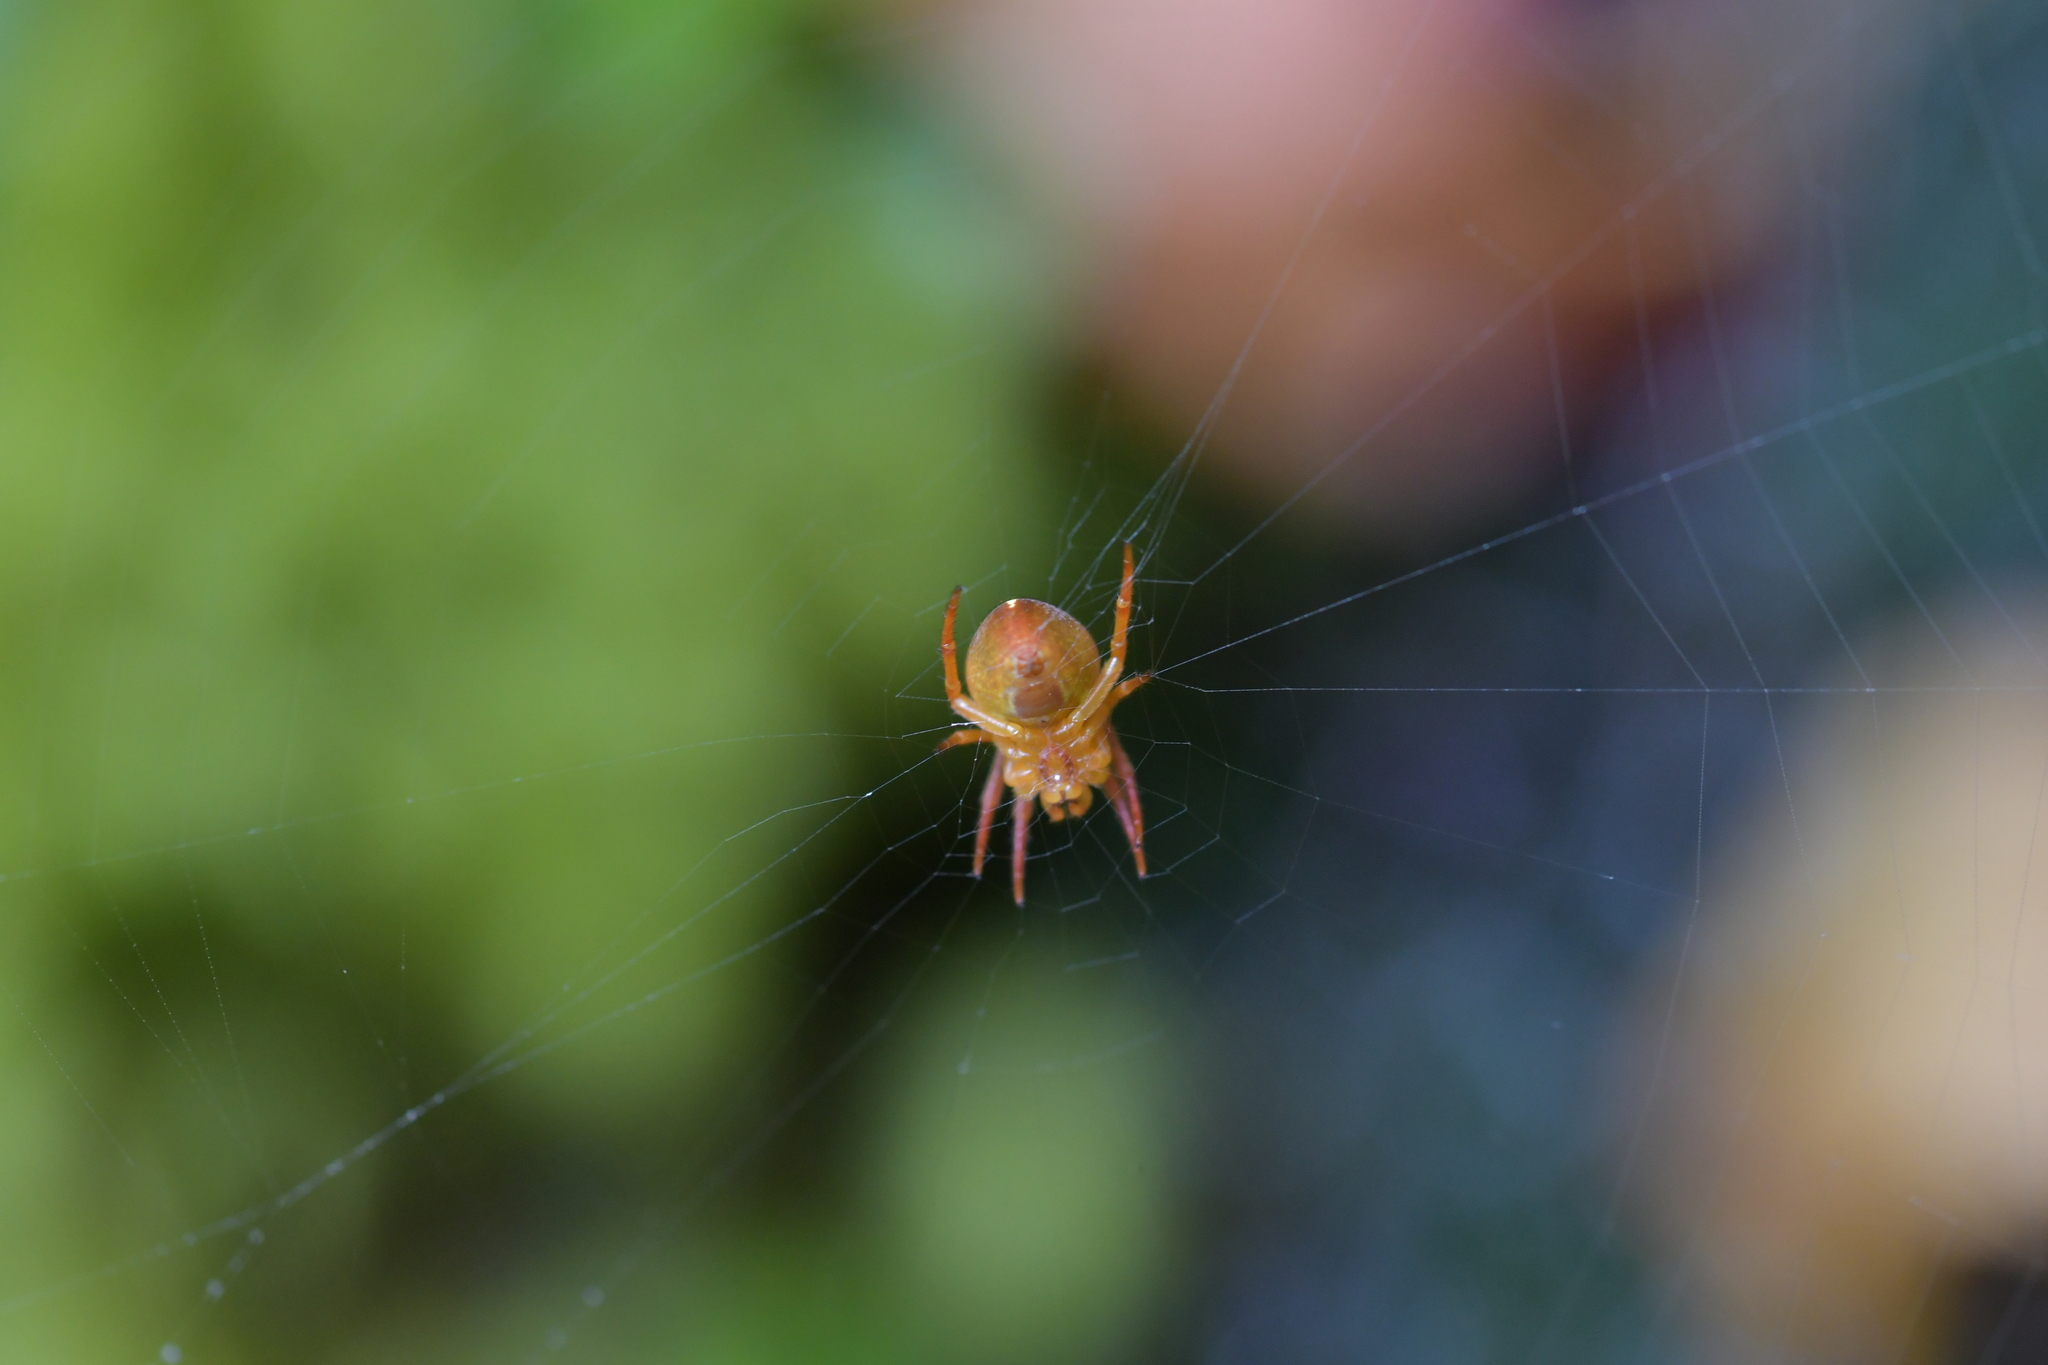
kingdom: Animalia
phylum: Arthropoda
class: Arachnida
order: Araneae
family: Araneidae
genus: Colaranea
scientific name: Colaranea brunnea
